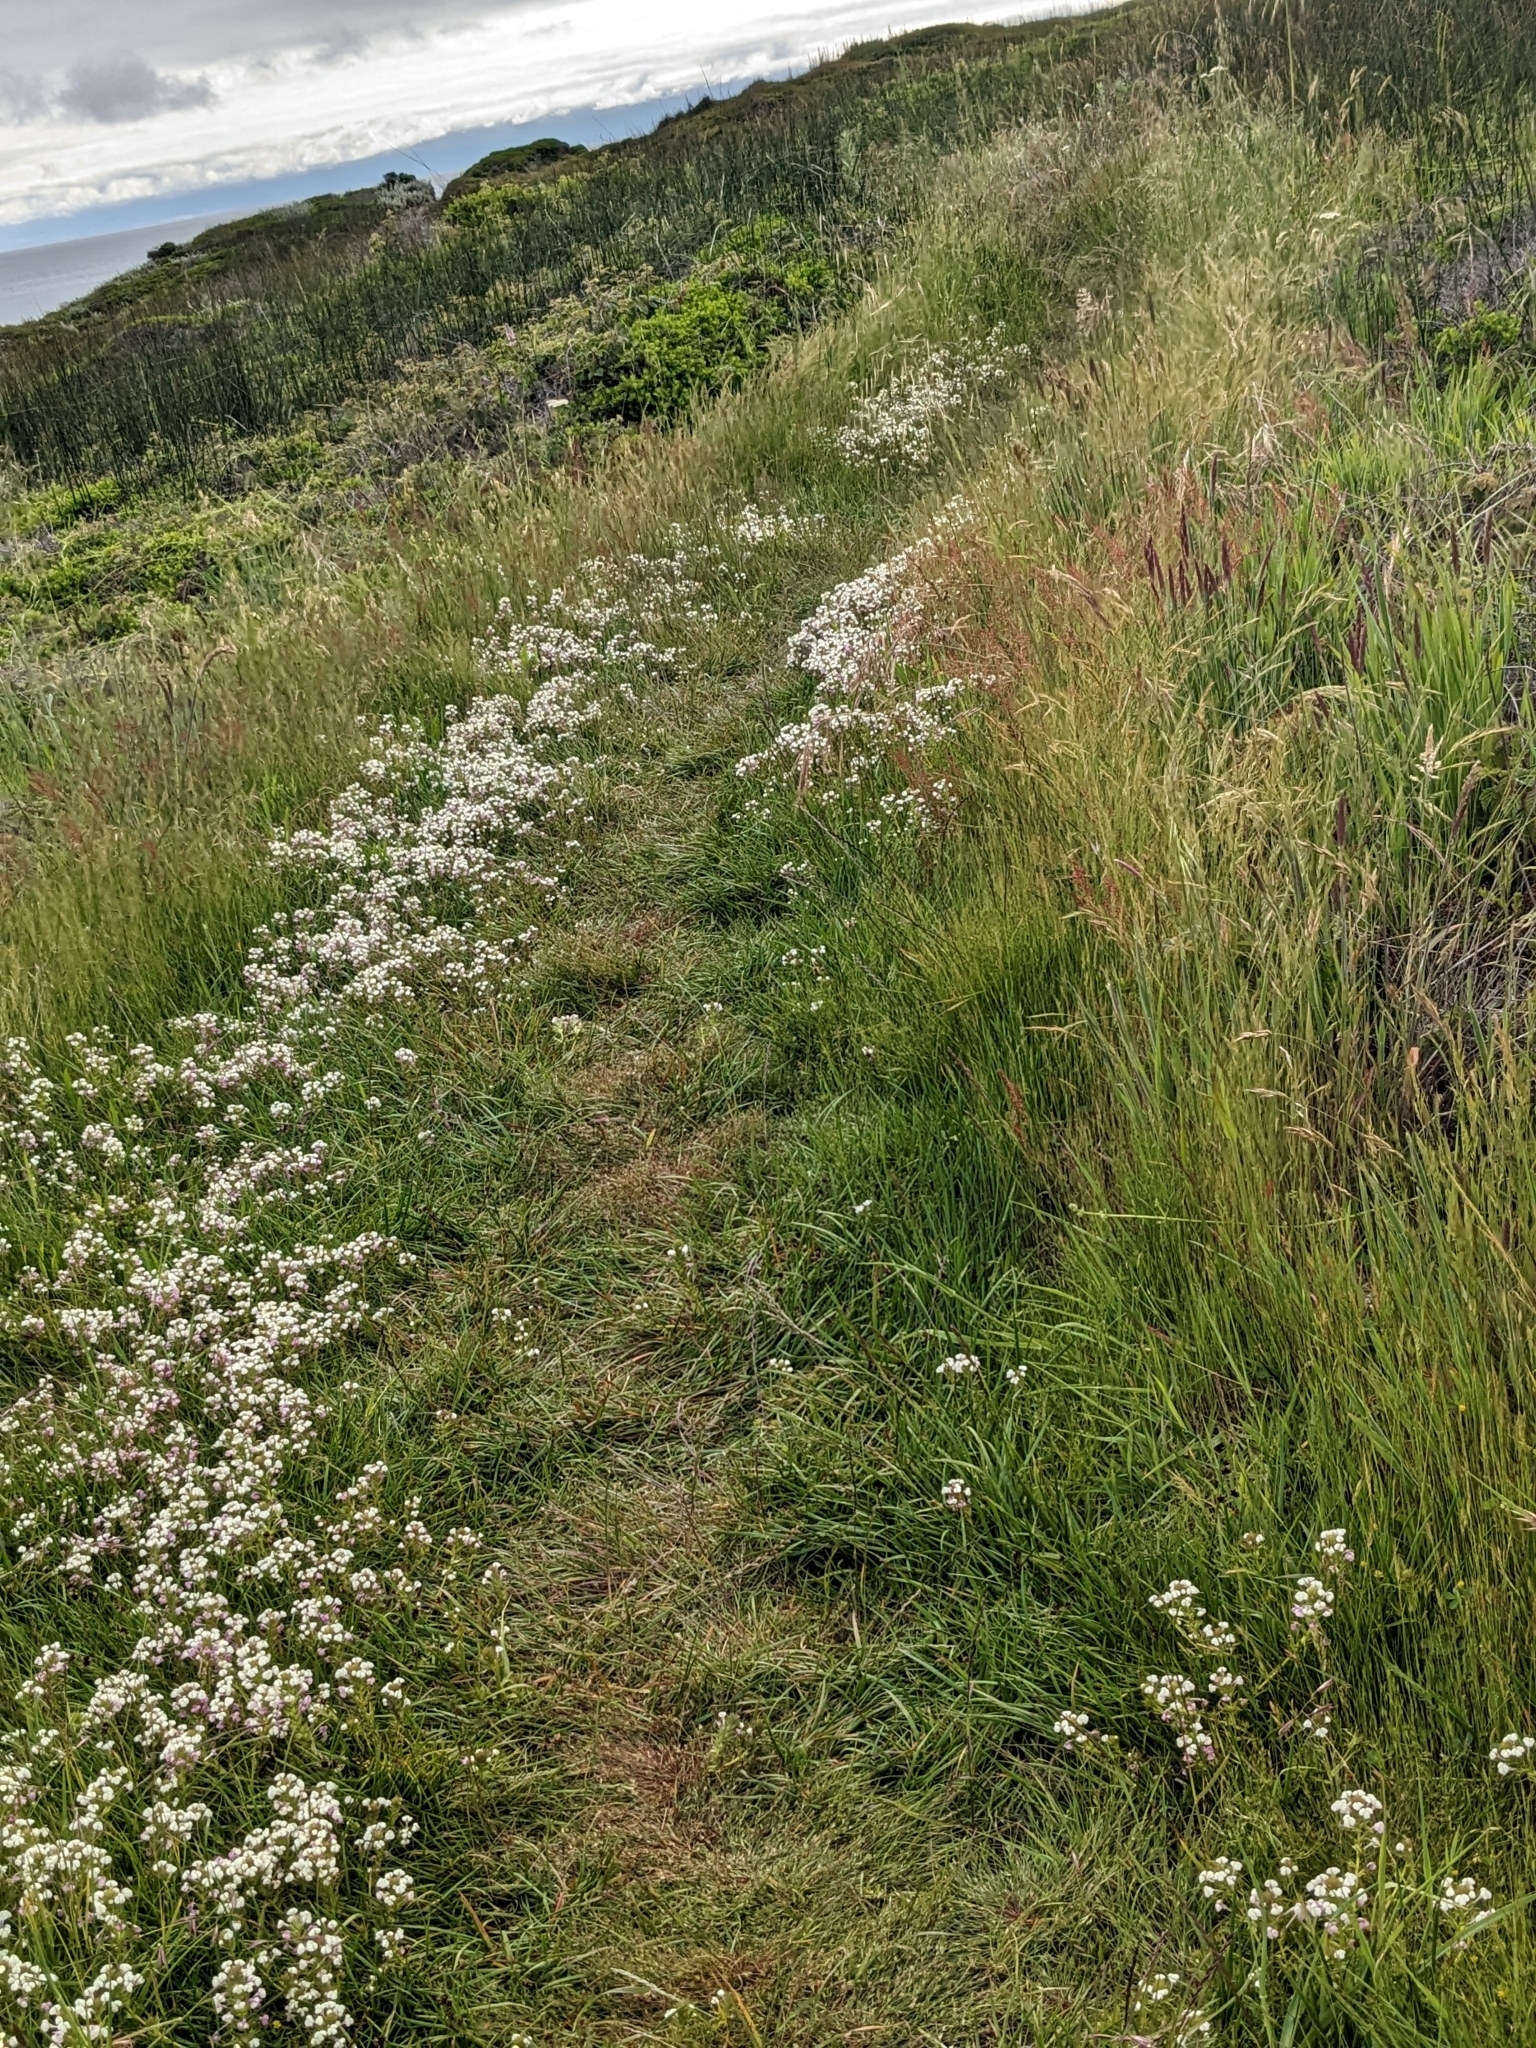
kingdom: Plantae
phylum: Tracheophyta
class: Magnoliopsida
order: Lamiales
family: Orobanchaceae
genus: Triphysaria
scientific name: Triphysaria versicolor
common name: Bearded false owl-clover
